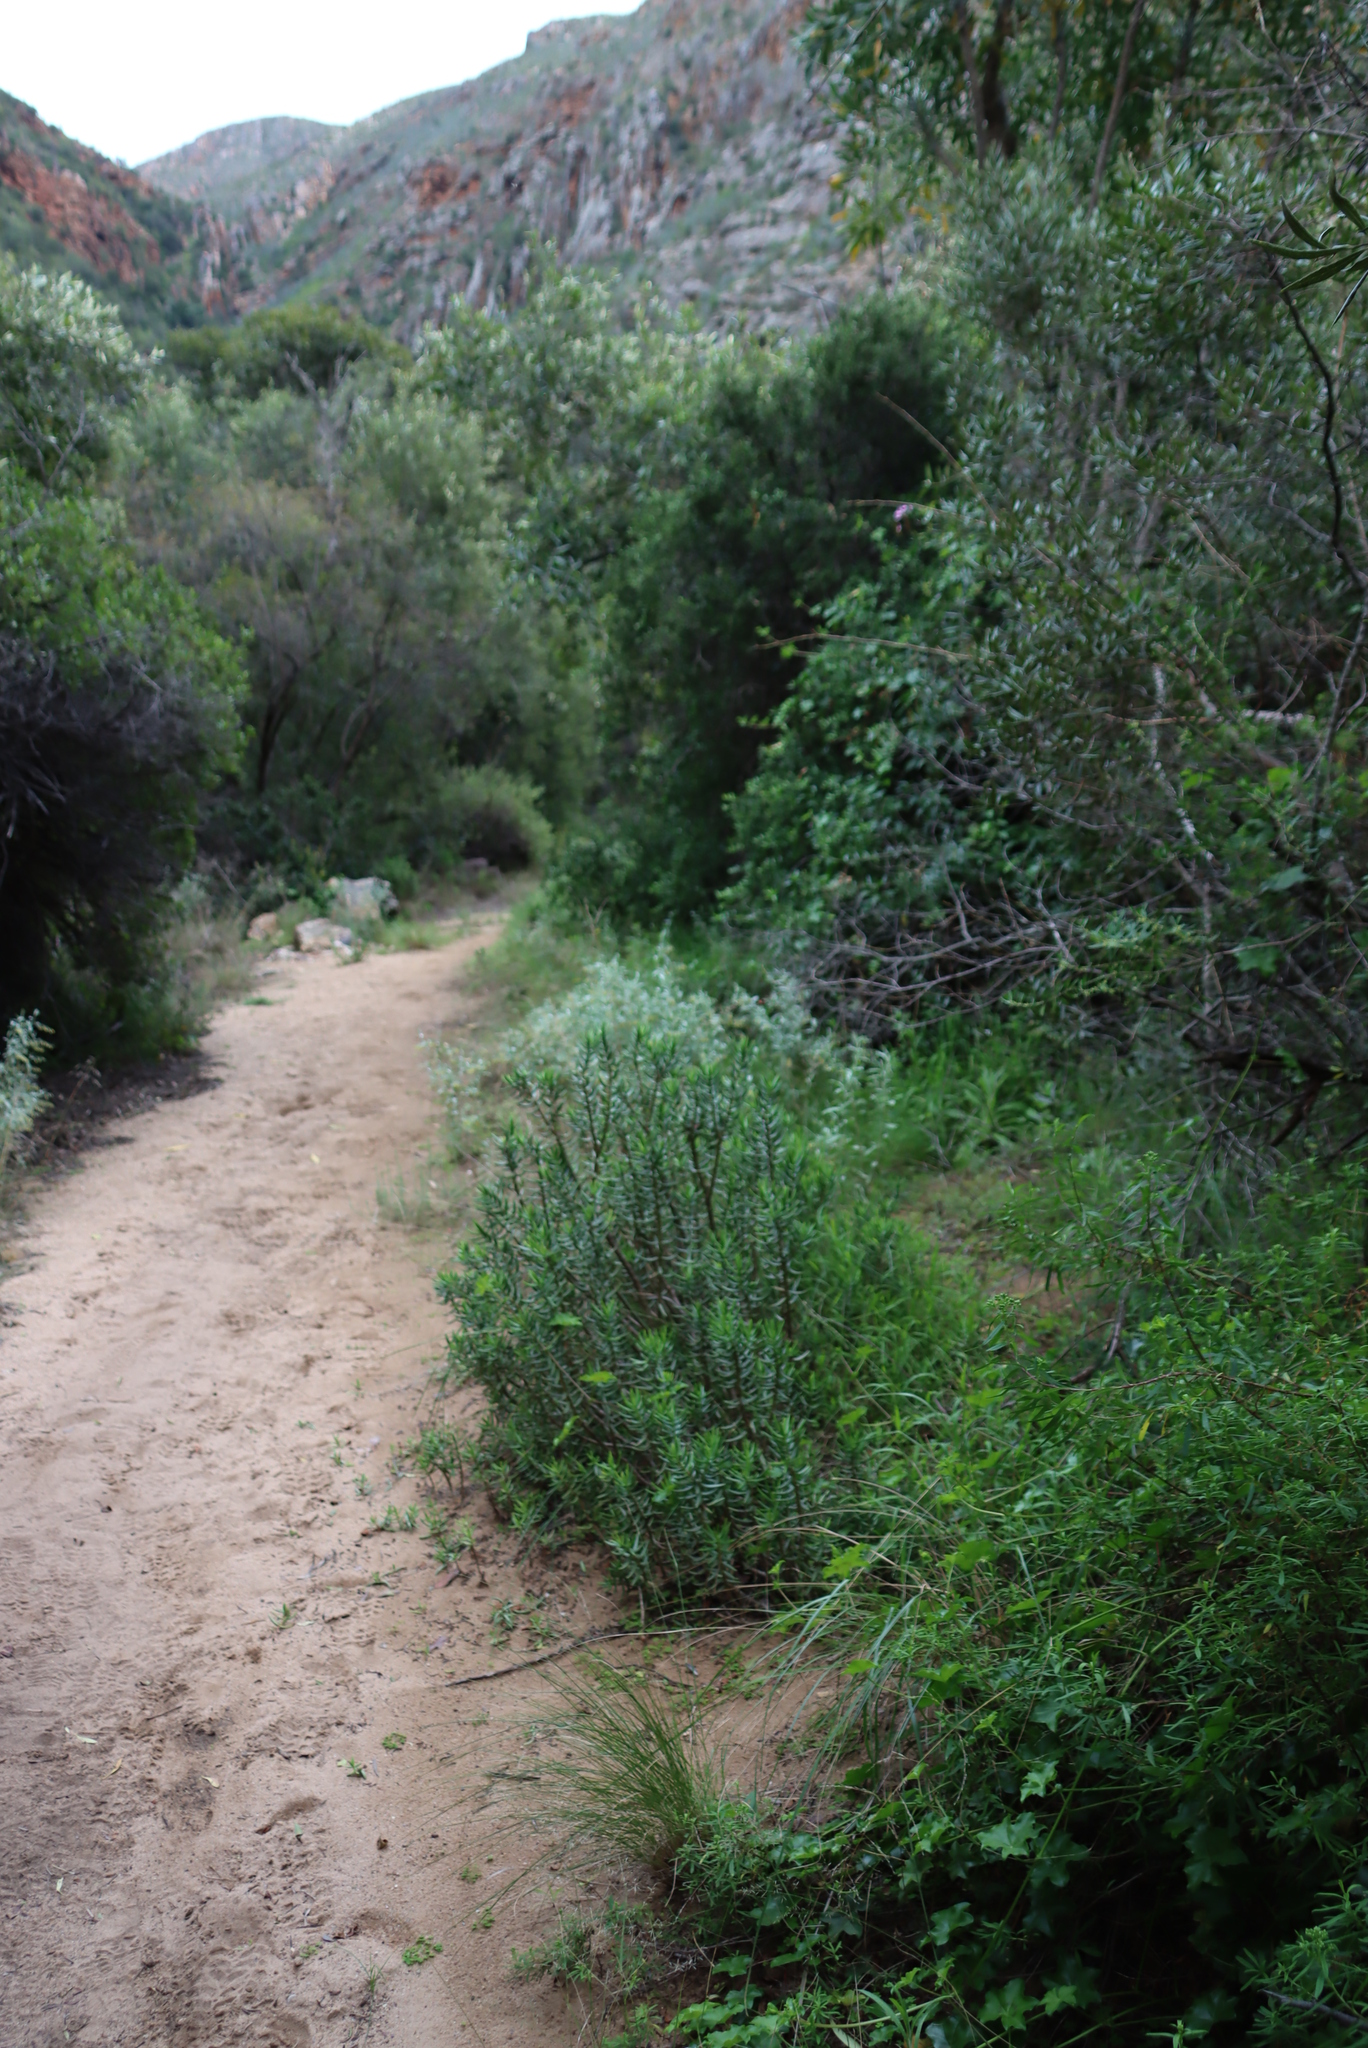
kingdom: Plantae
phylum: Tracheophyta
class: Magnoliopsida
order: Saxifragales
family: Crassulaceae
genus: Crassula
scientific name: Crassula tetragona
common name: Pygmyweed
